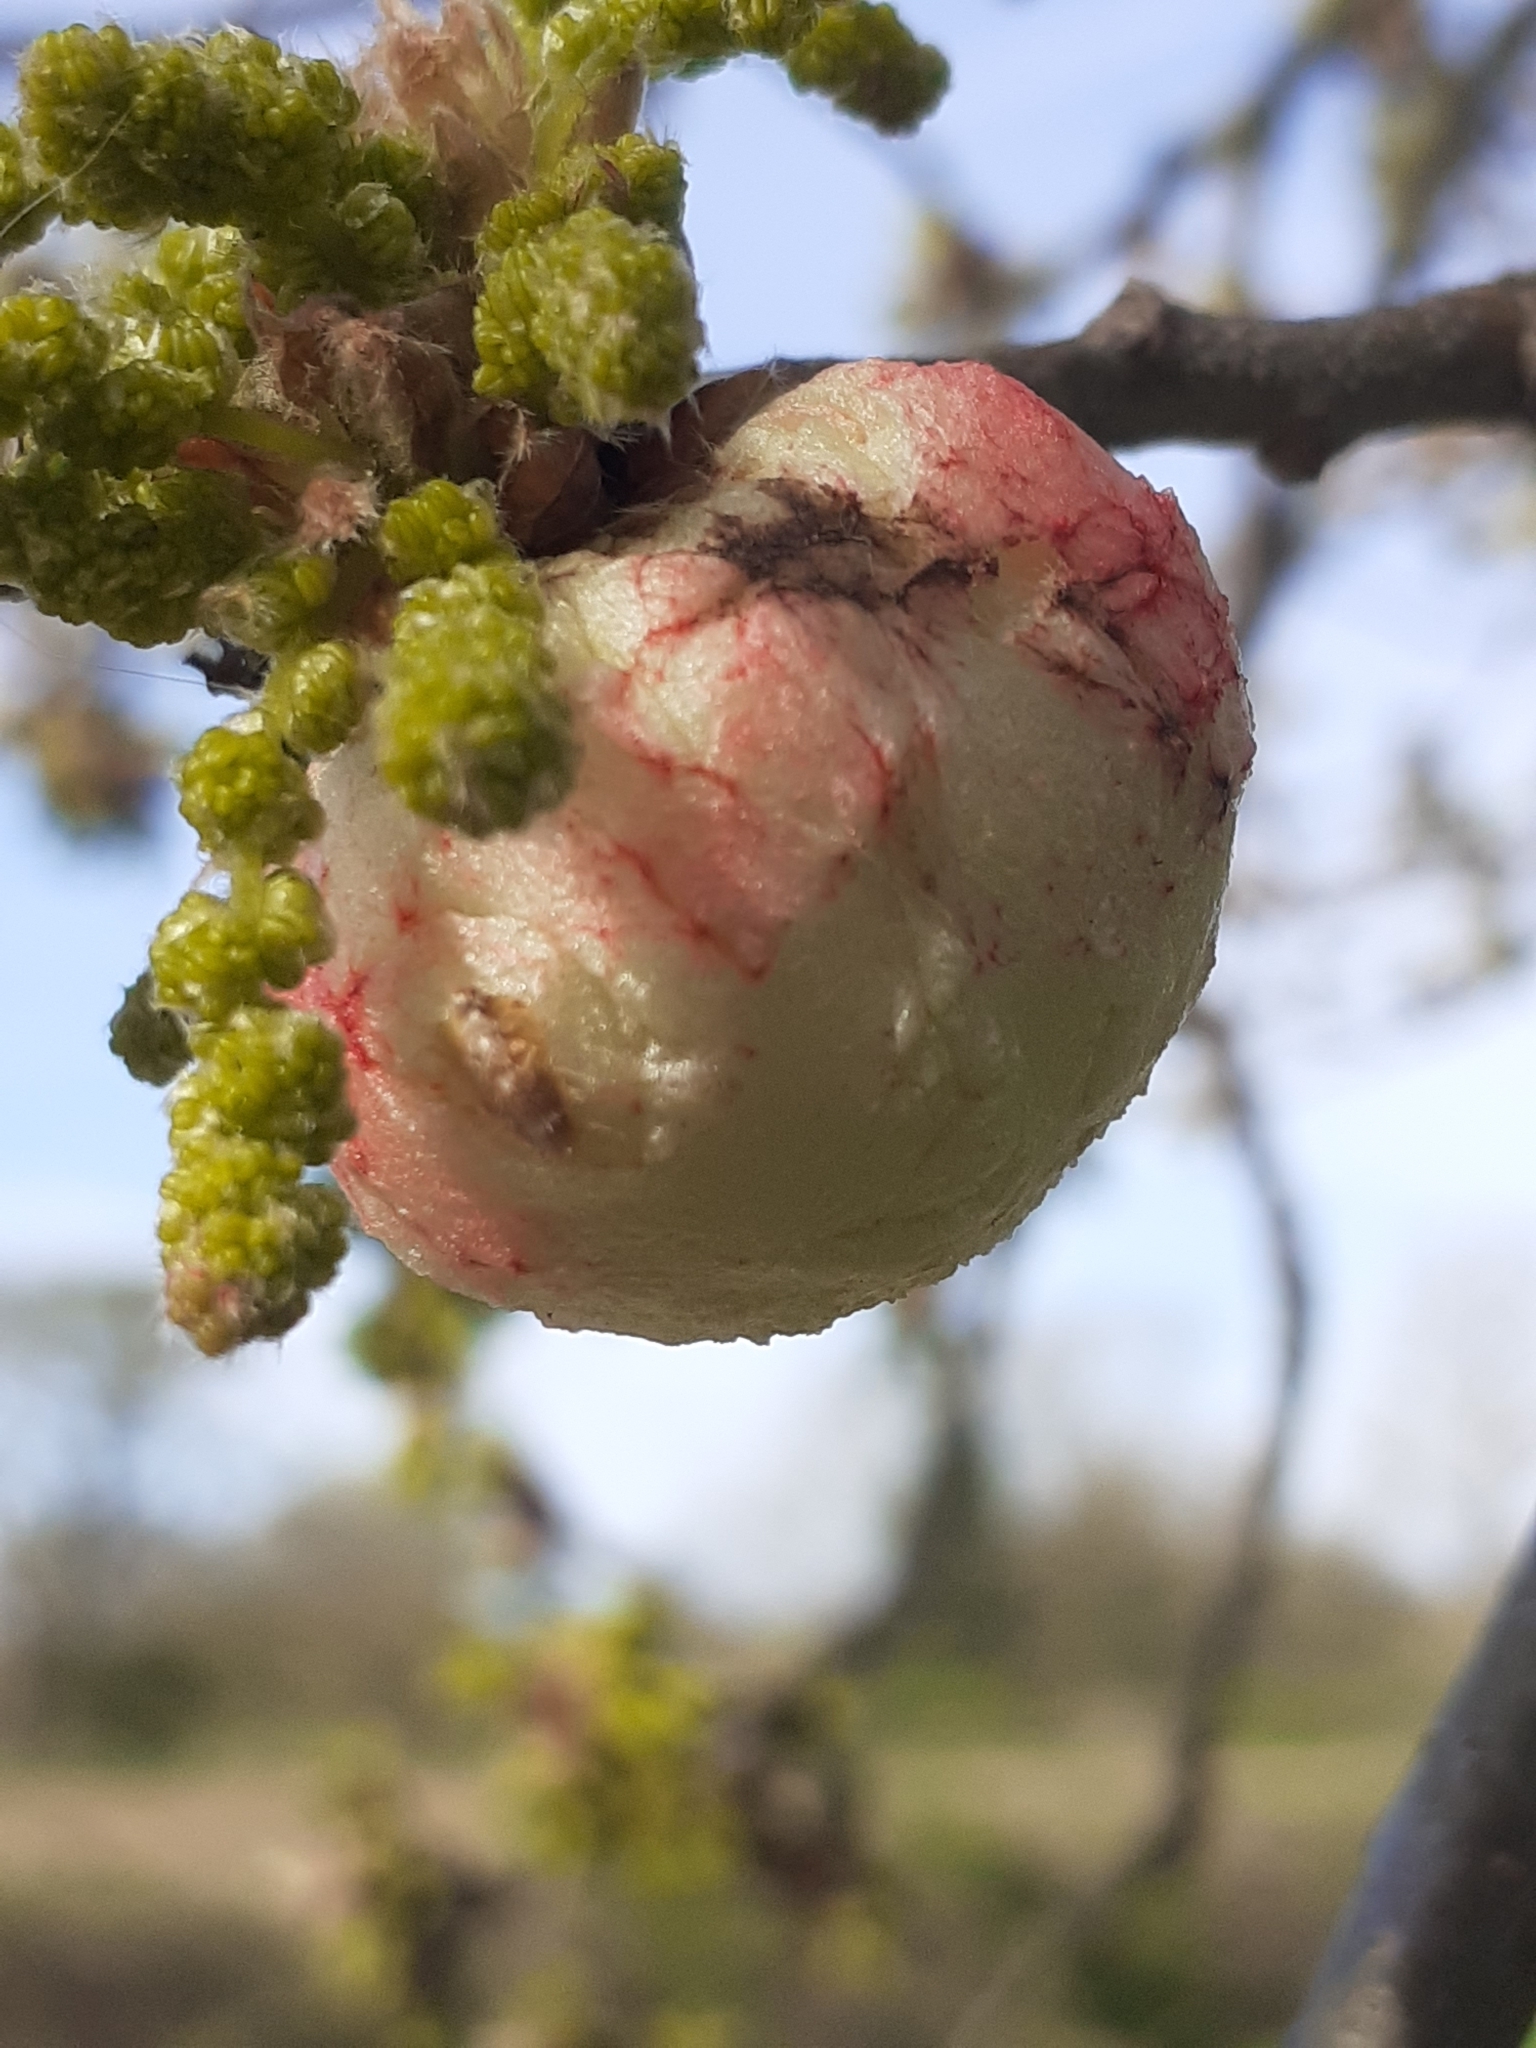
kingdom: Animalia
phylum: Arthropoda
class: Insecta
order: Hymenoptera
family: Cynipidae
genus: Biorhiza
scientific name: Biorhiza pallida
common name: Oak apple
